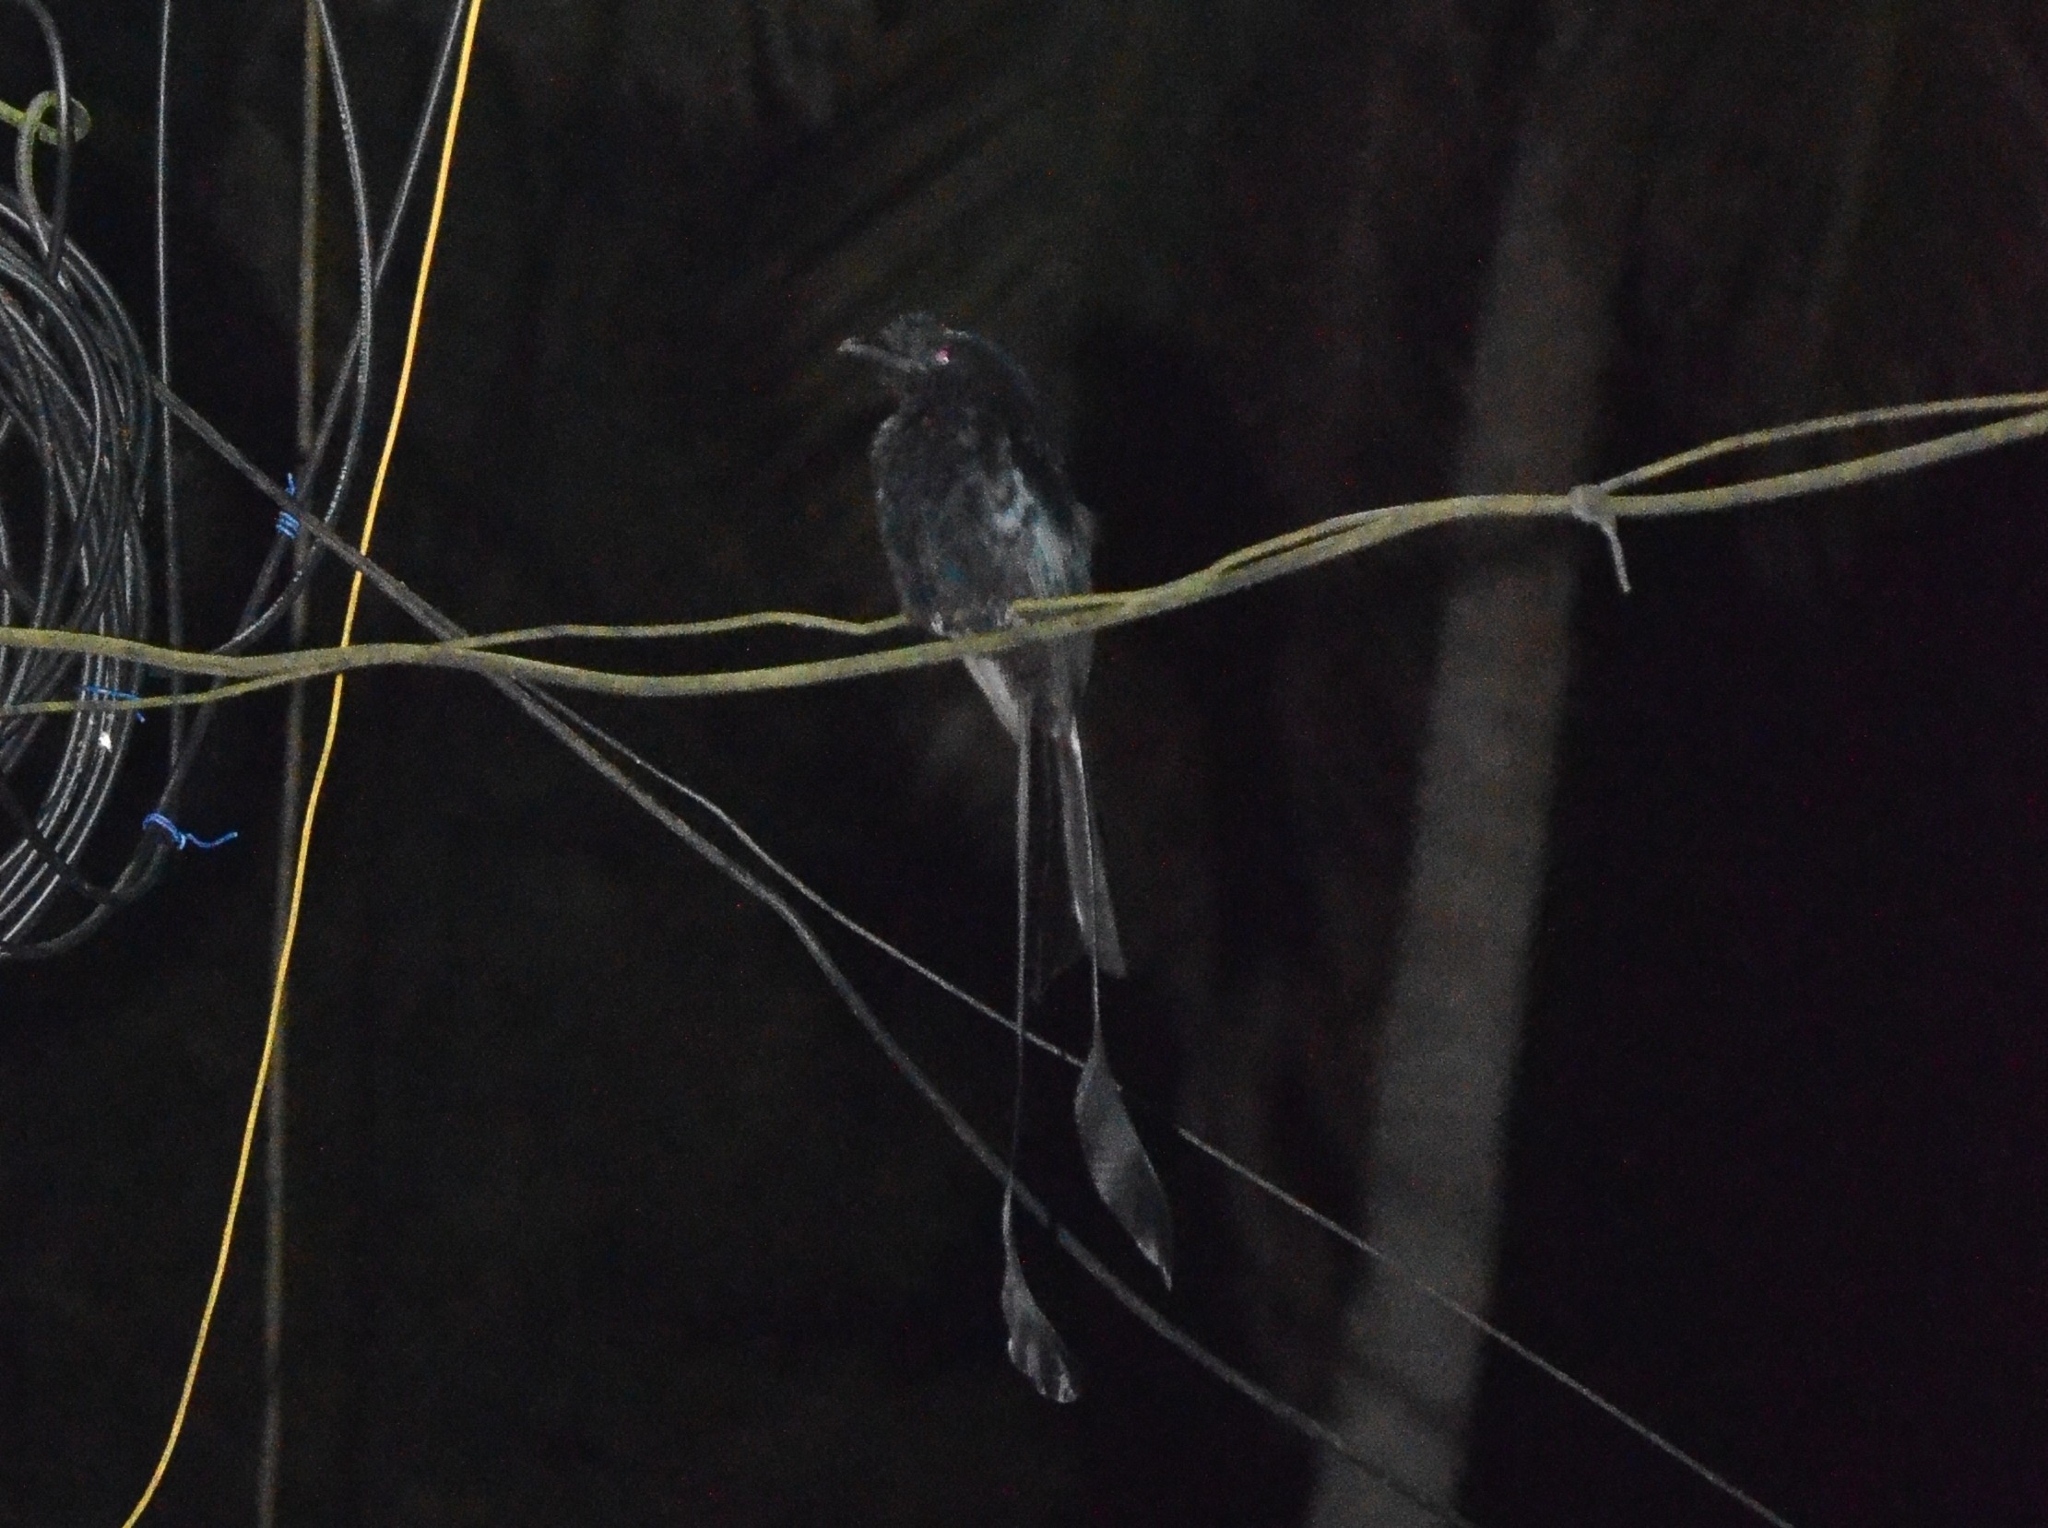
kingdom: Animalia
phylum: Chordata
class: Aves
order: Passeriformes
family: Dicruridae
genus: Dicrurus
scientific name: Dicrurus paradiseus
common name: Greater racket-tailed drongo
